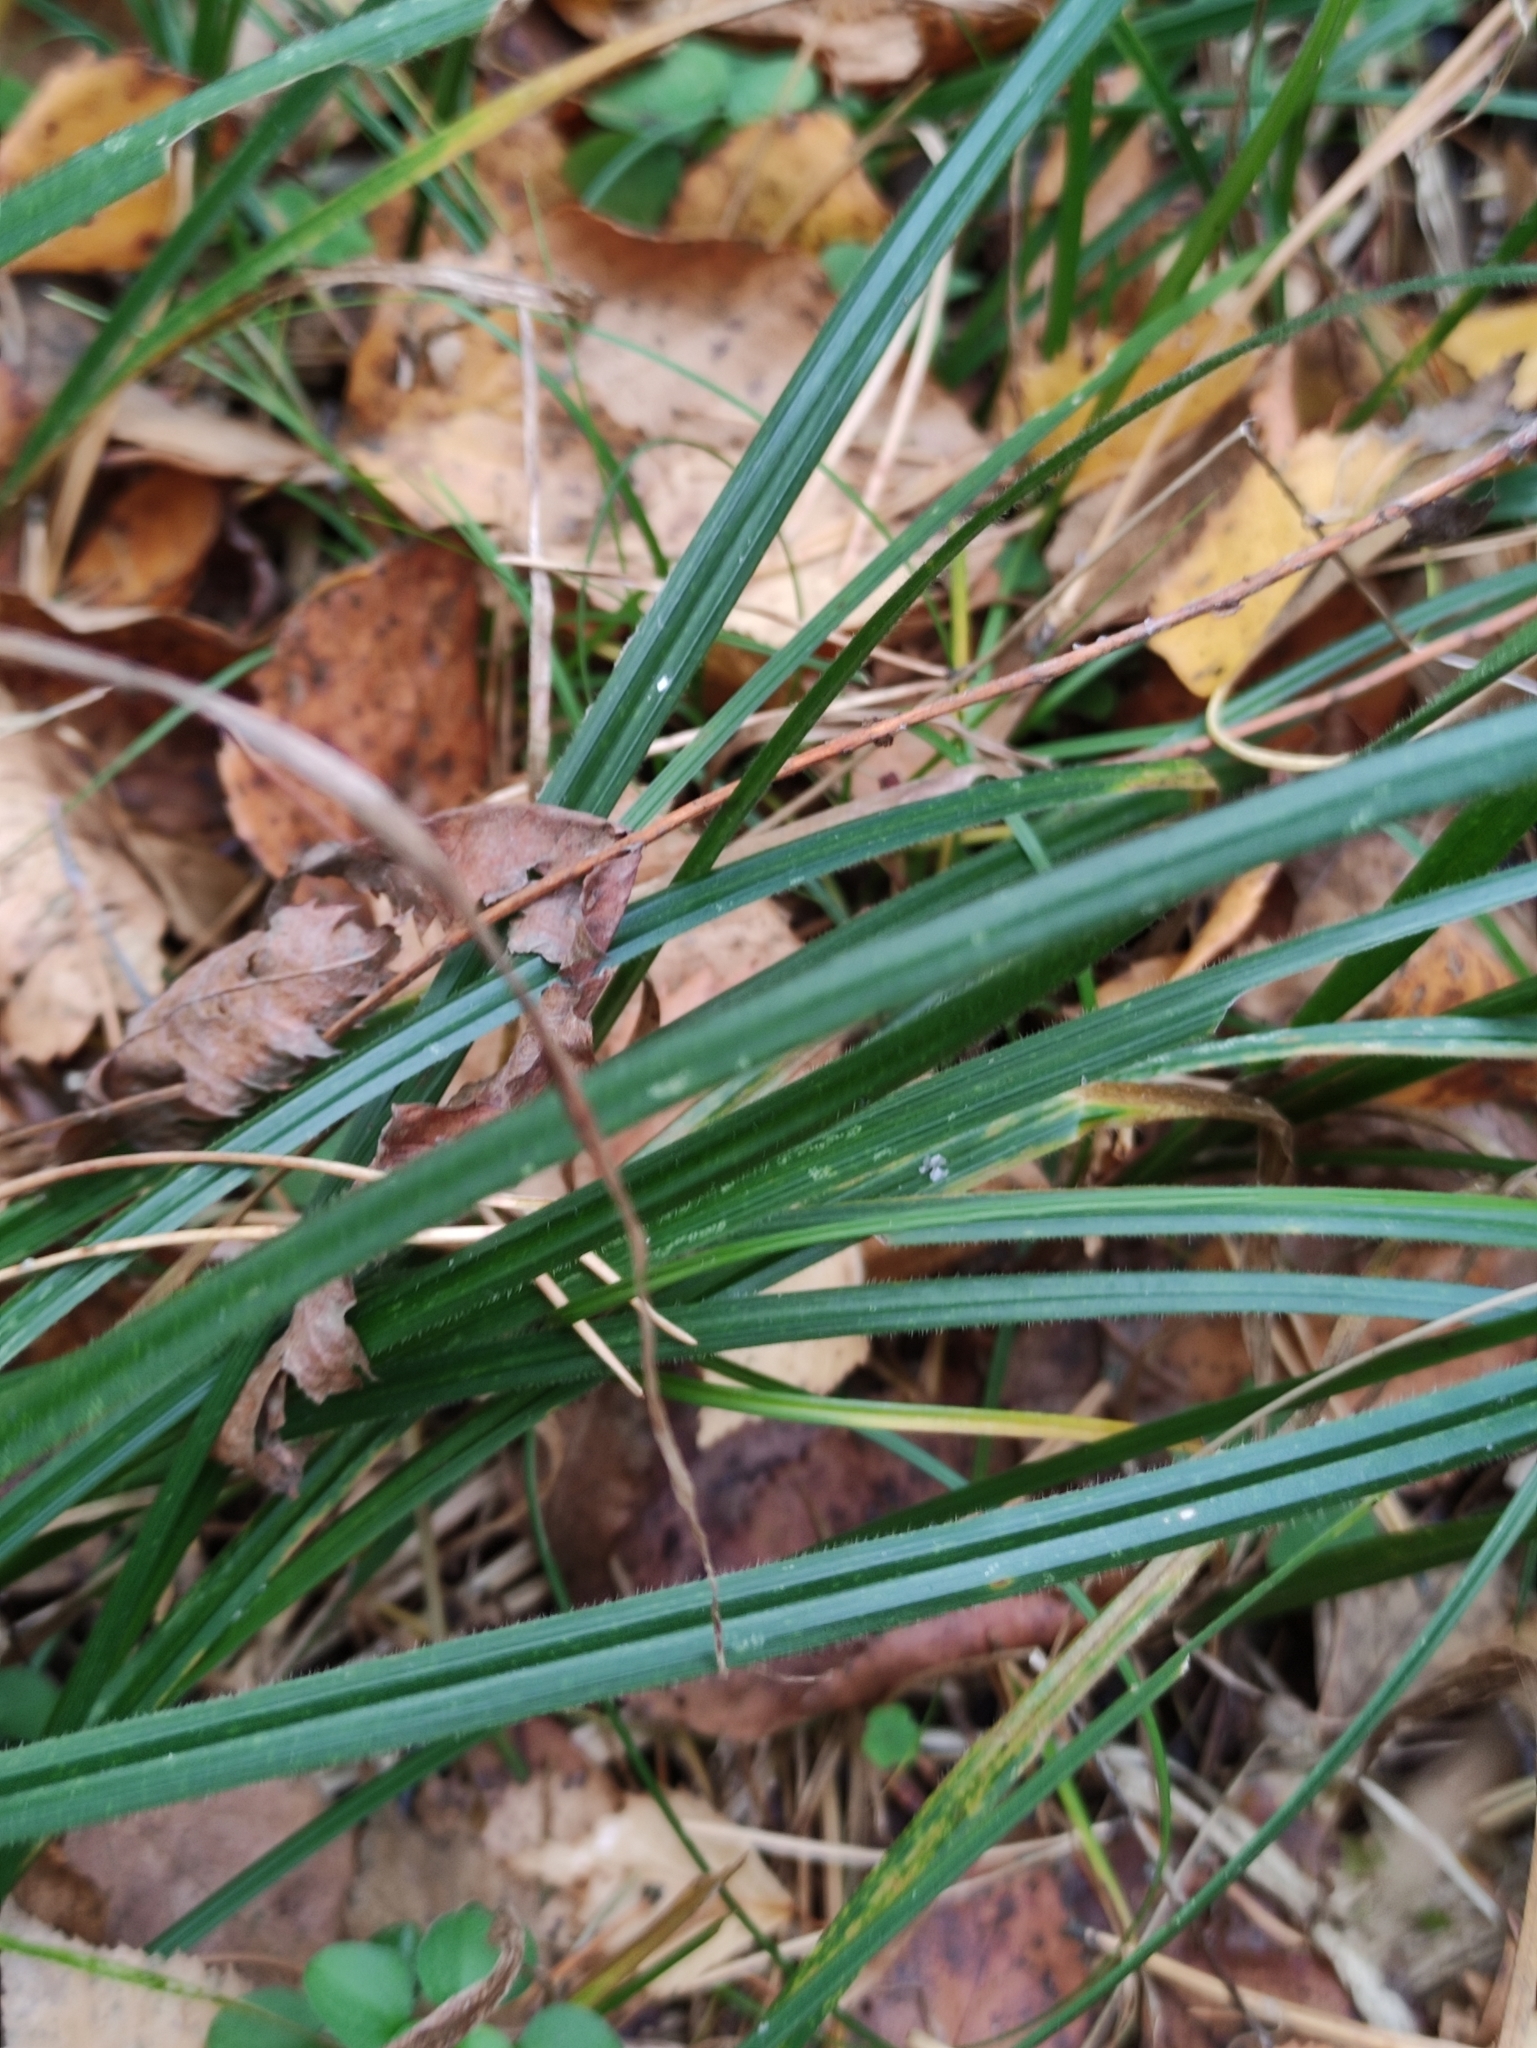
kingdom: Plantae
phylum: Tracheophyta
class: Liliopsida
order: Poales
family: Cyperaceae
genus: Carex
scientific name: Carex pilosa
